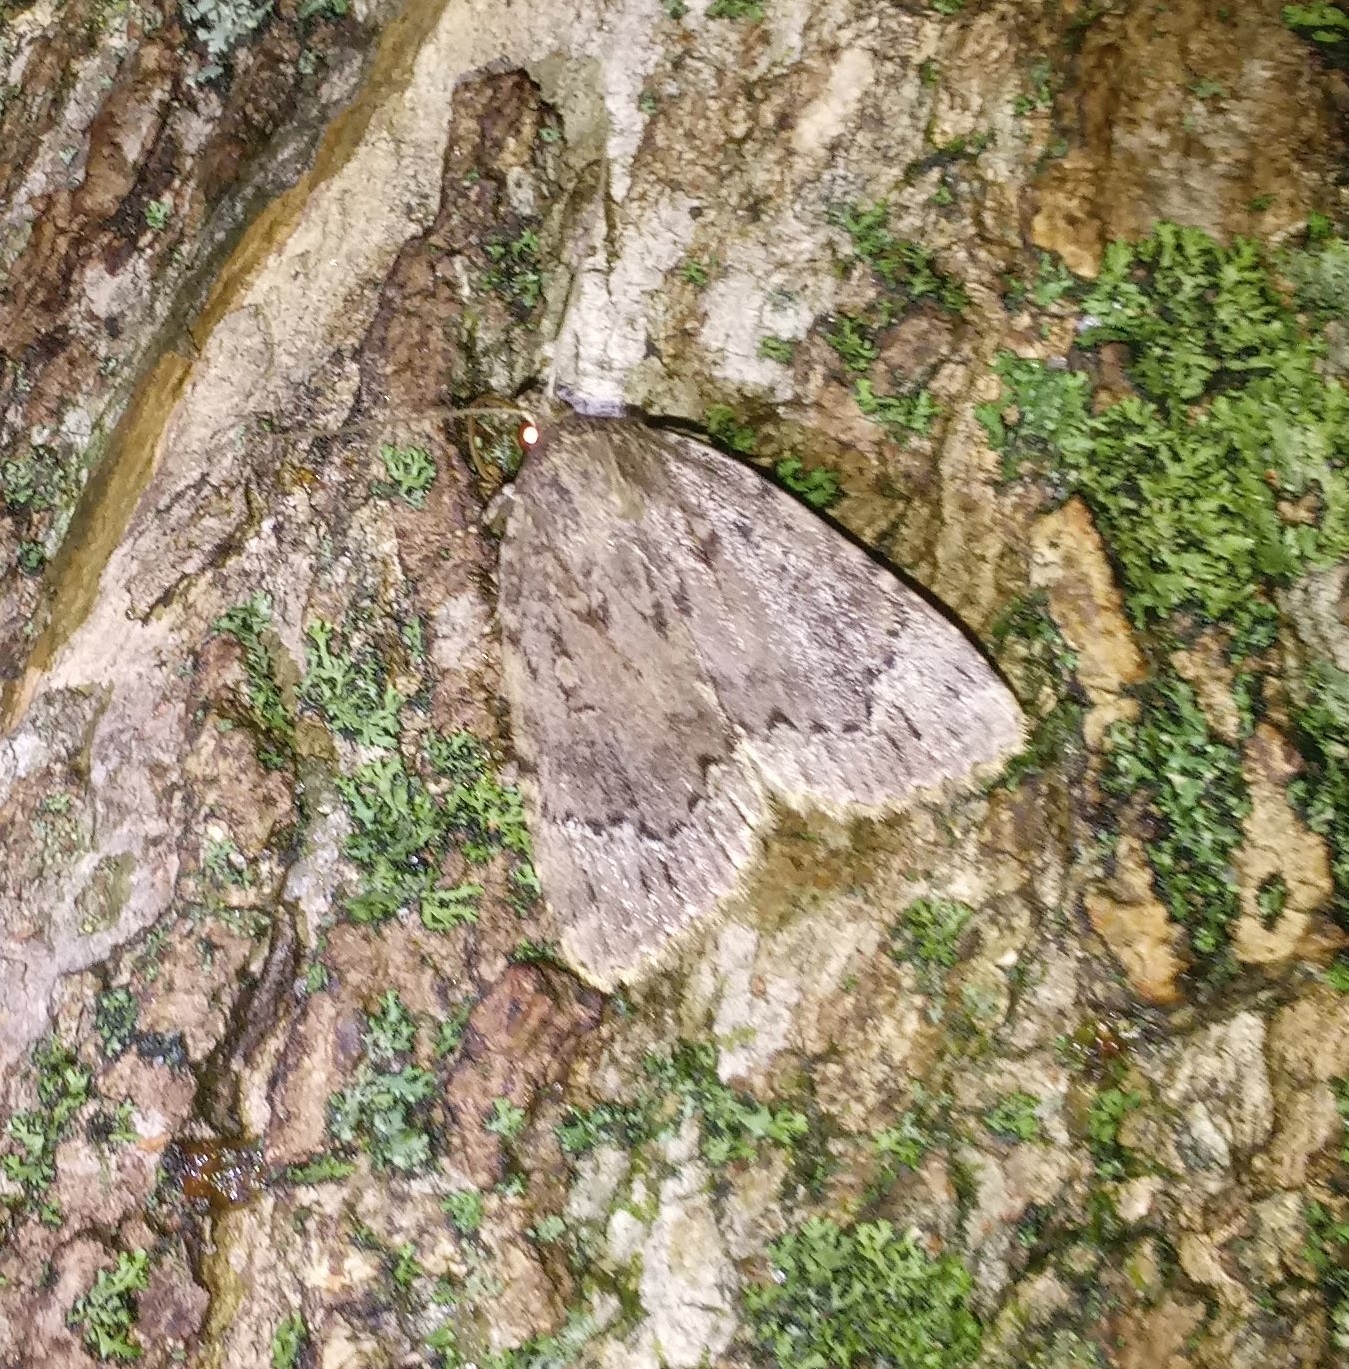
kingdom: Animalia
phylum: Arthropoda
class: Insecta
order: Lepidoptera
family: Noctuidae
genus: Amphipyra
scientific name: Amphipyra pyramidoides
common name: American copper underwing
